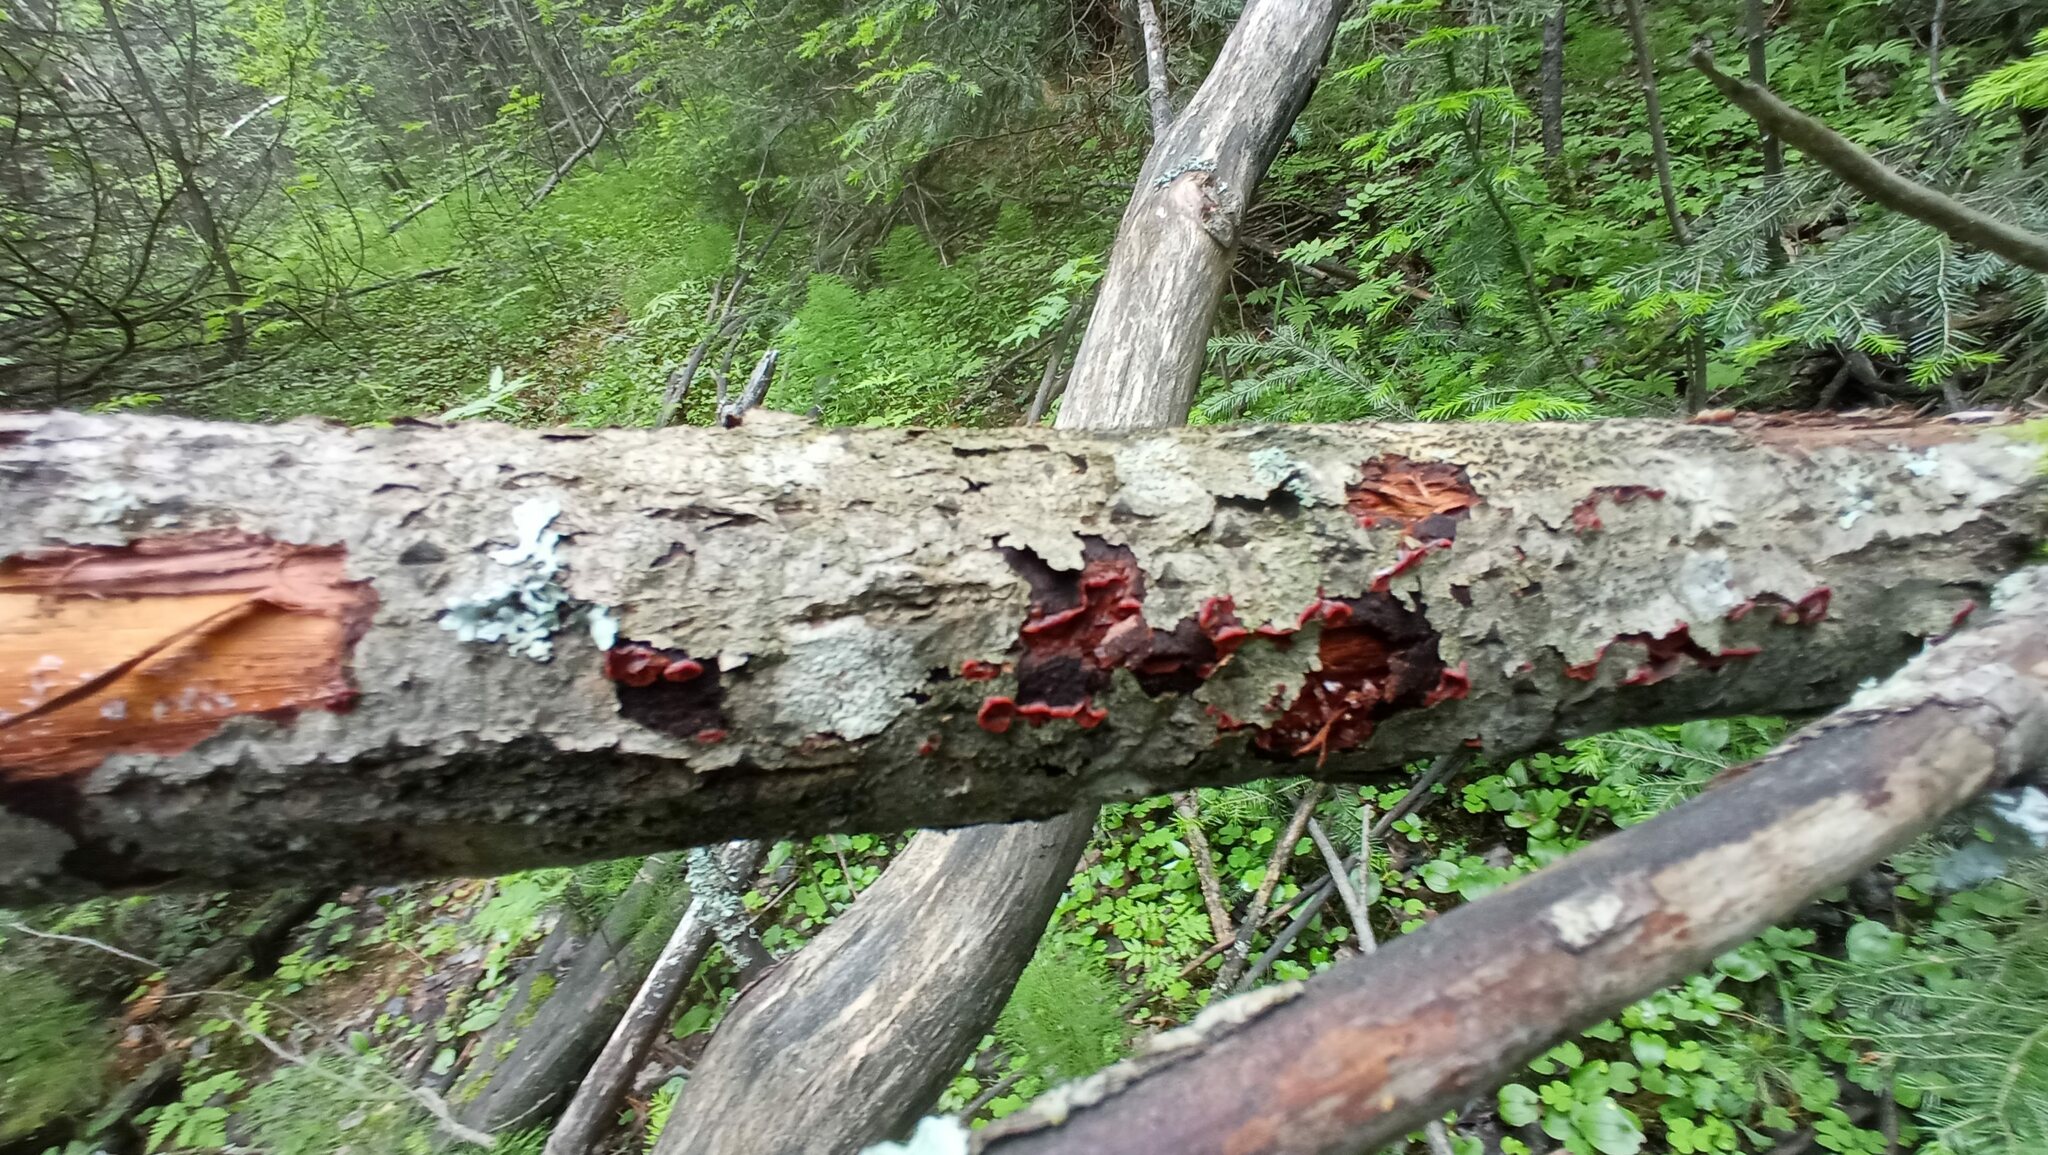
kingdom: Fungi
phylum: Basidiomycota
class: Agaricomycetes
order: Corticiales
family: Vuilleminiaceae
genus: Cytidia
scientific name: Cytidia salicina
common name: Scarlet splash
